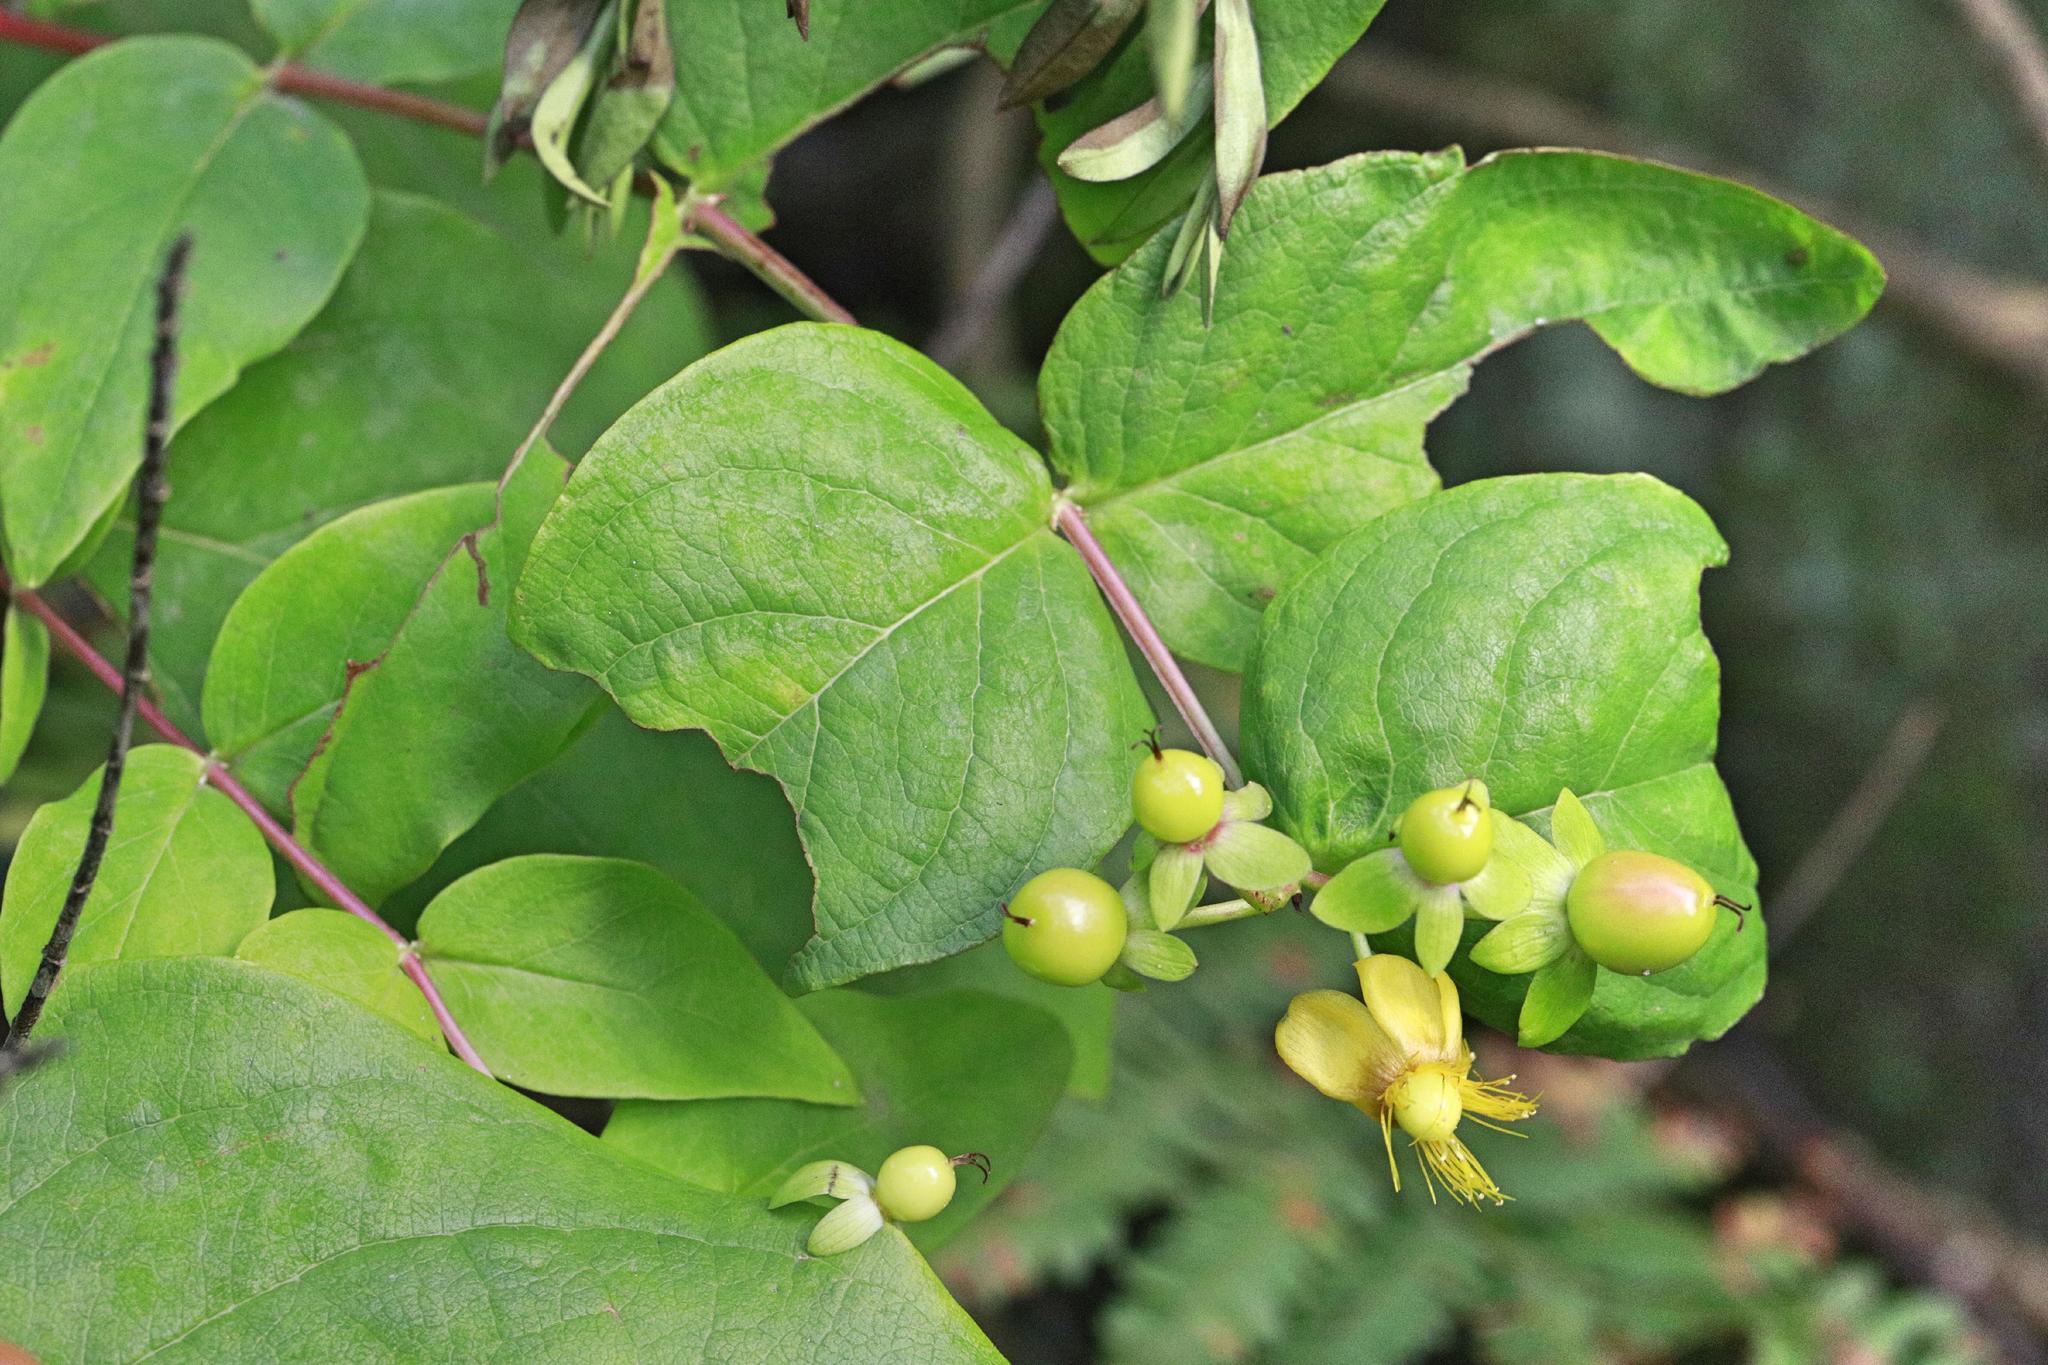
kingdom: Plantae
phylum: Tracheophyta
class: Magnoliopsida
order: Malpighiales
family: Hypericaceae
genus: Hypericum
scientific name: Hypericum androsaemum
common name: Sweet-amber
